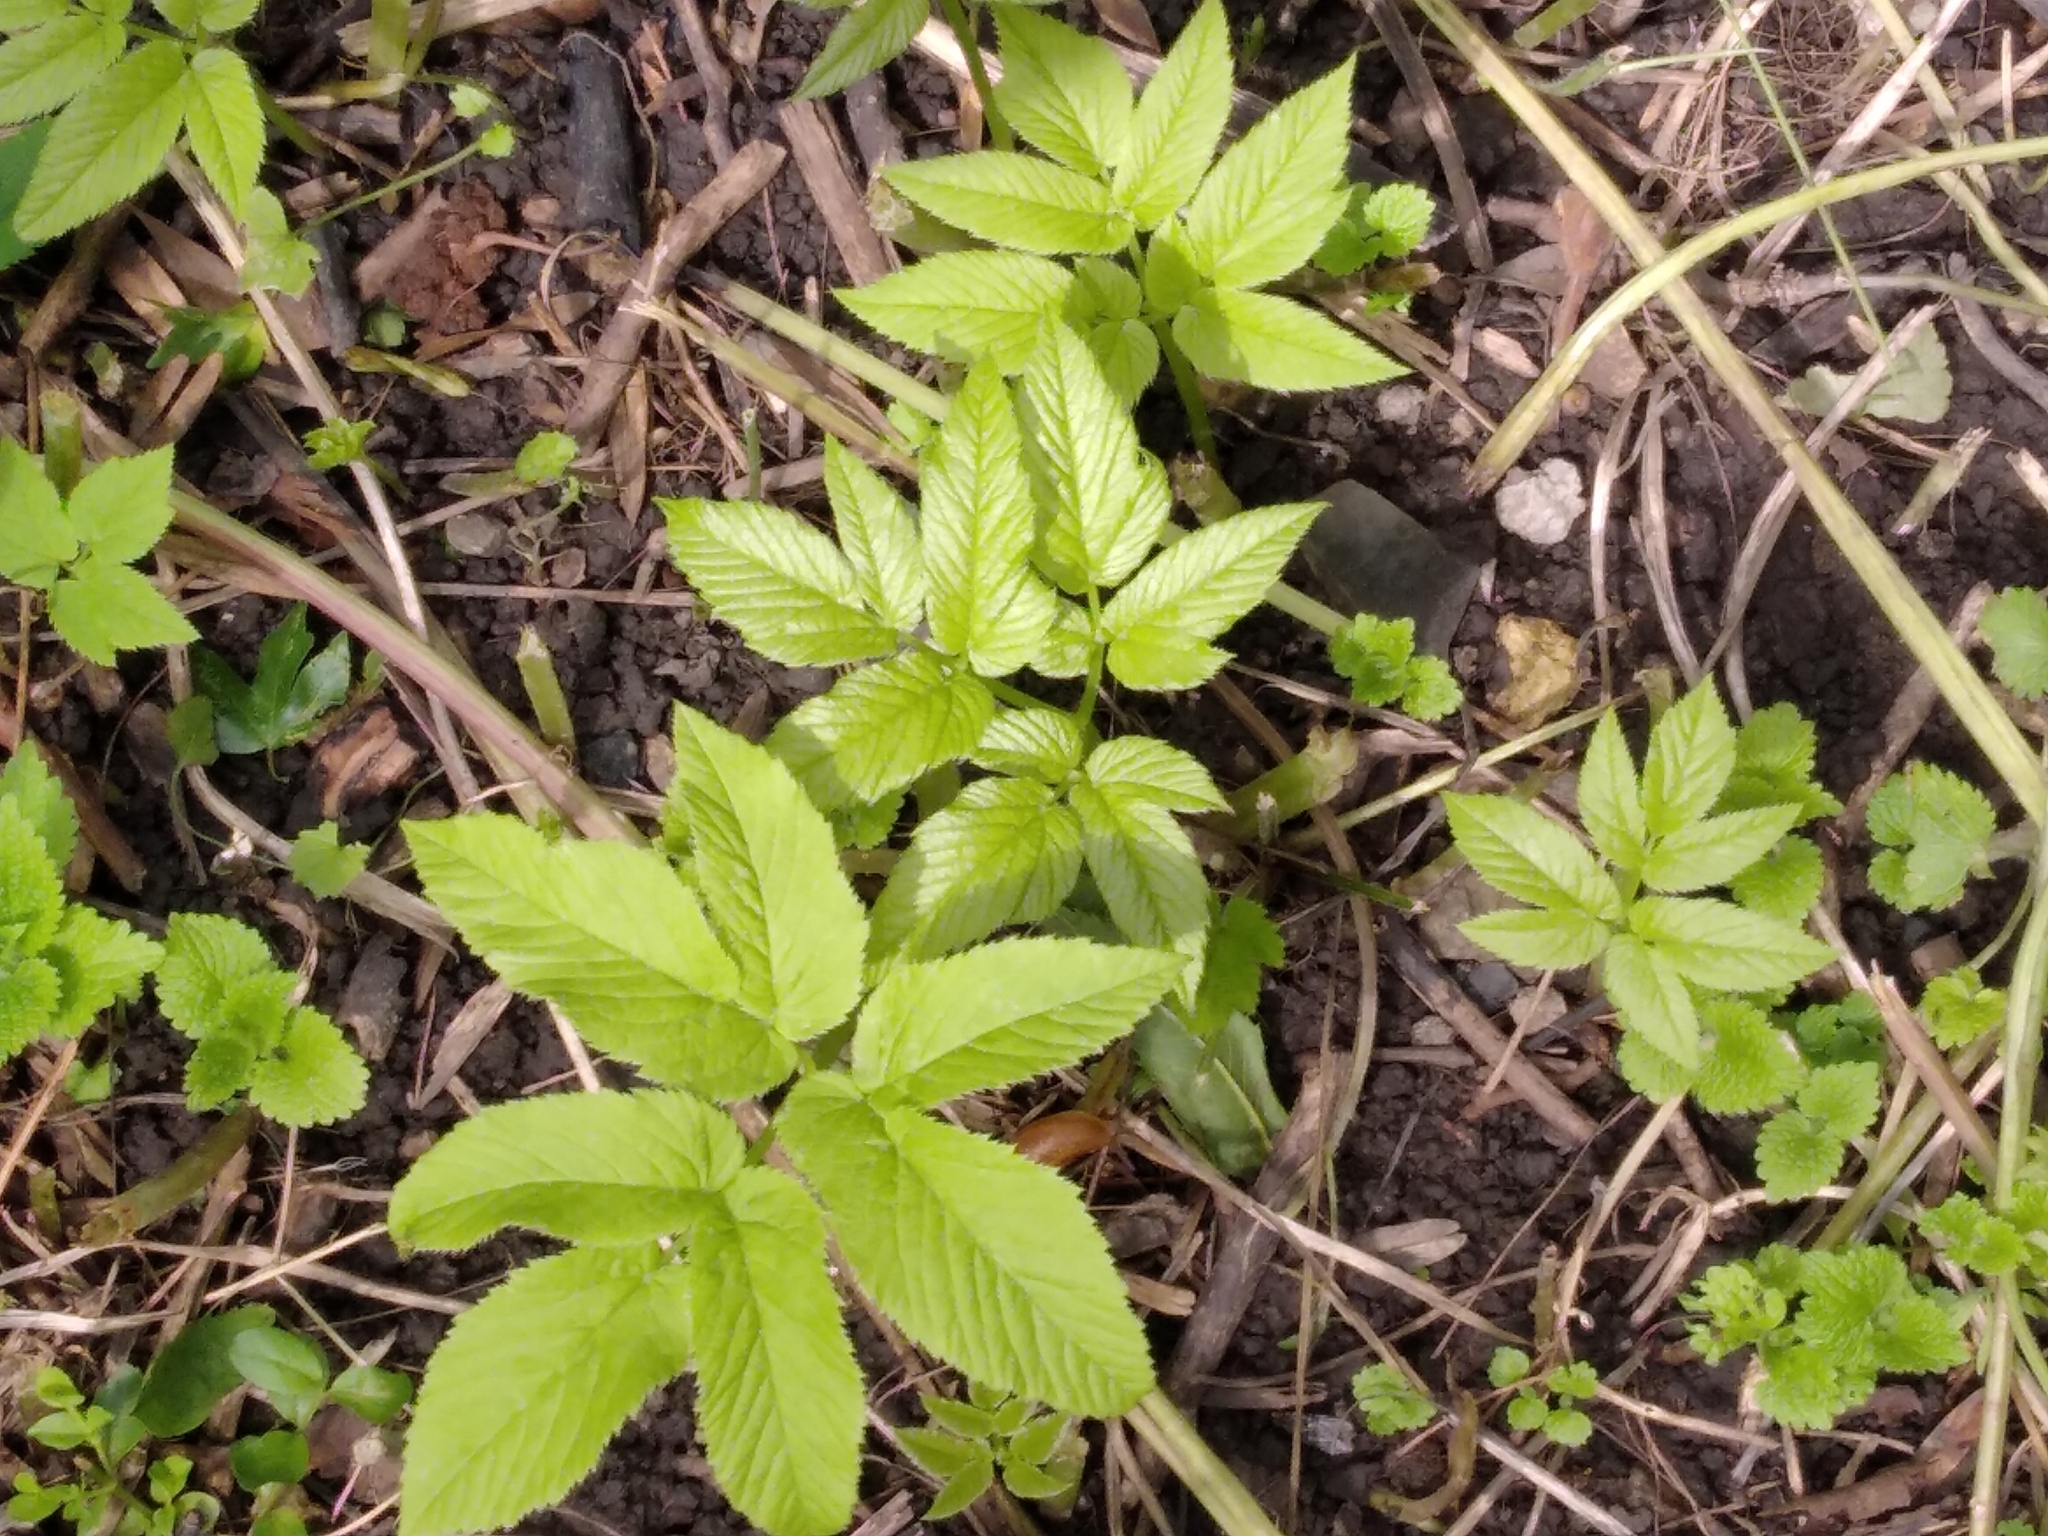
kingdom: Plantae
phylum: Tracheophyta
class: Magnoliopsida
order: Apiales
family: Apiaceae
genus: Aegopodium
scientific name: Aegopodium podagraria
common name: Ground-elder
